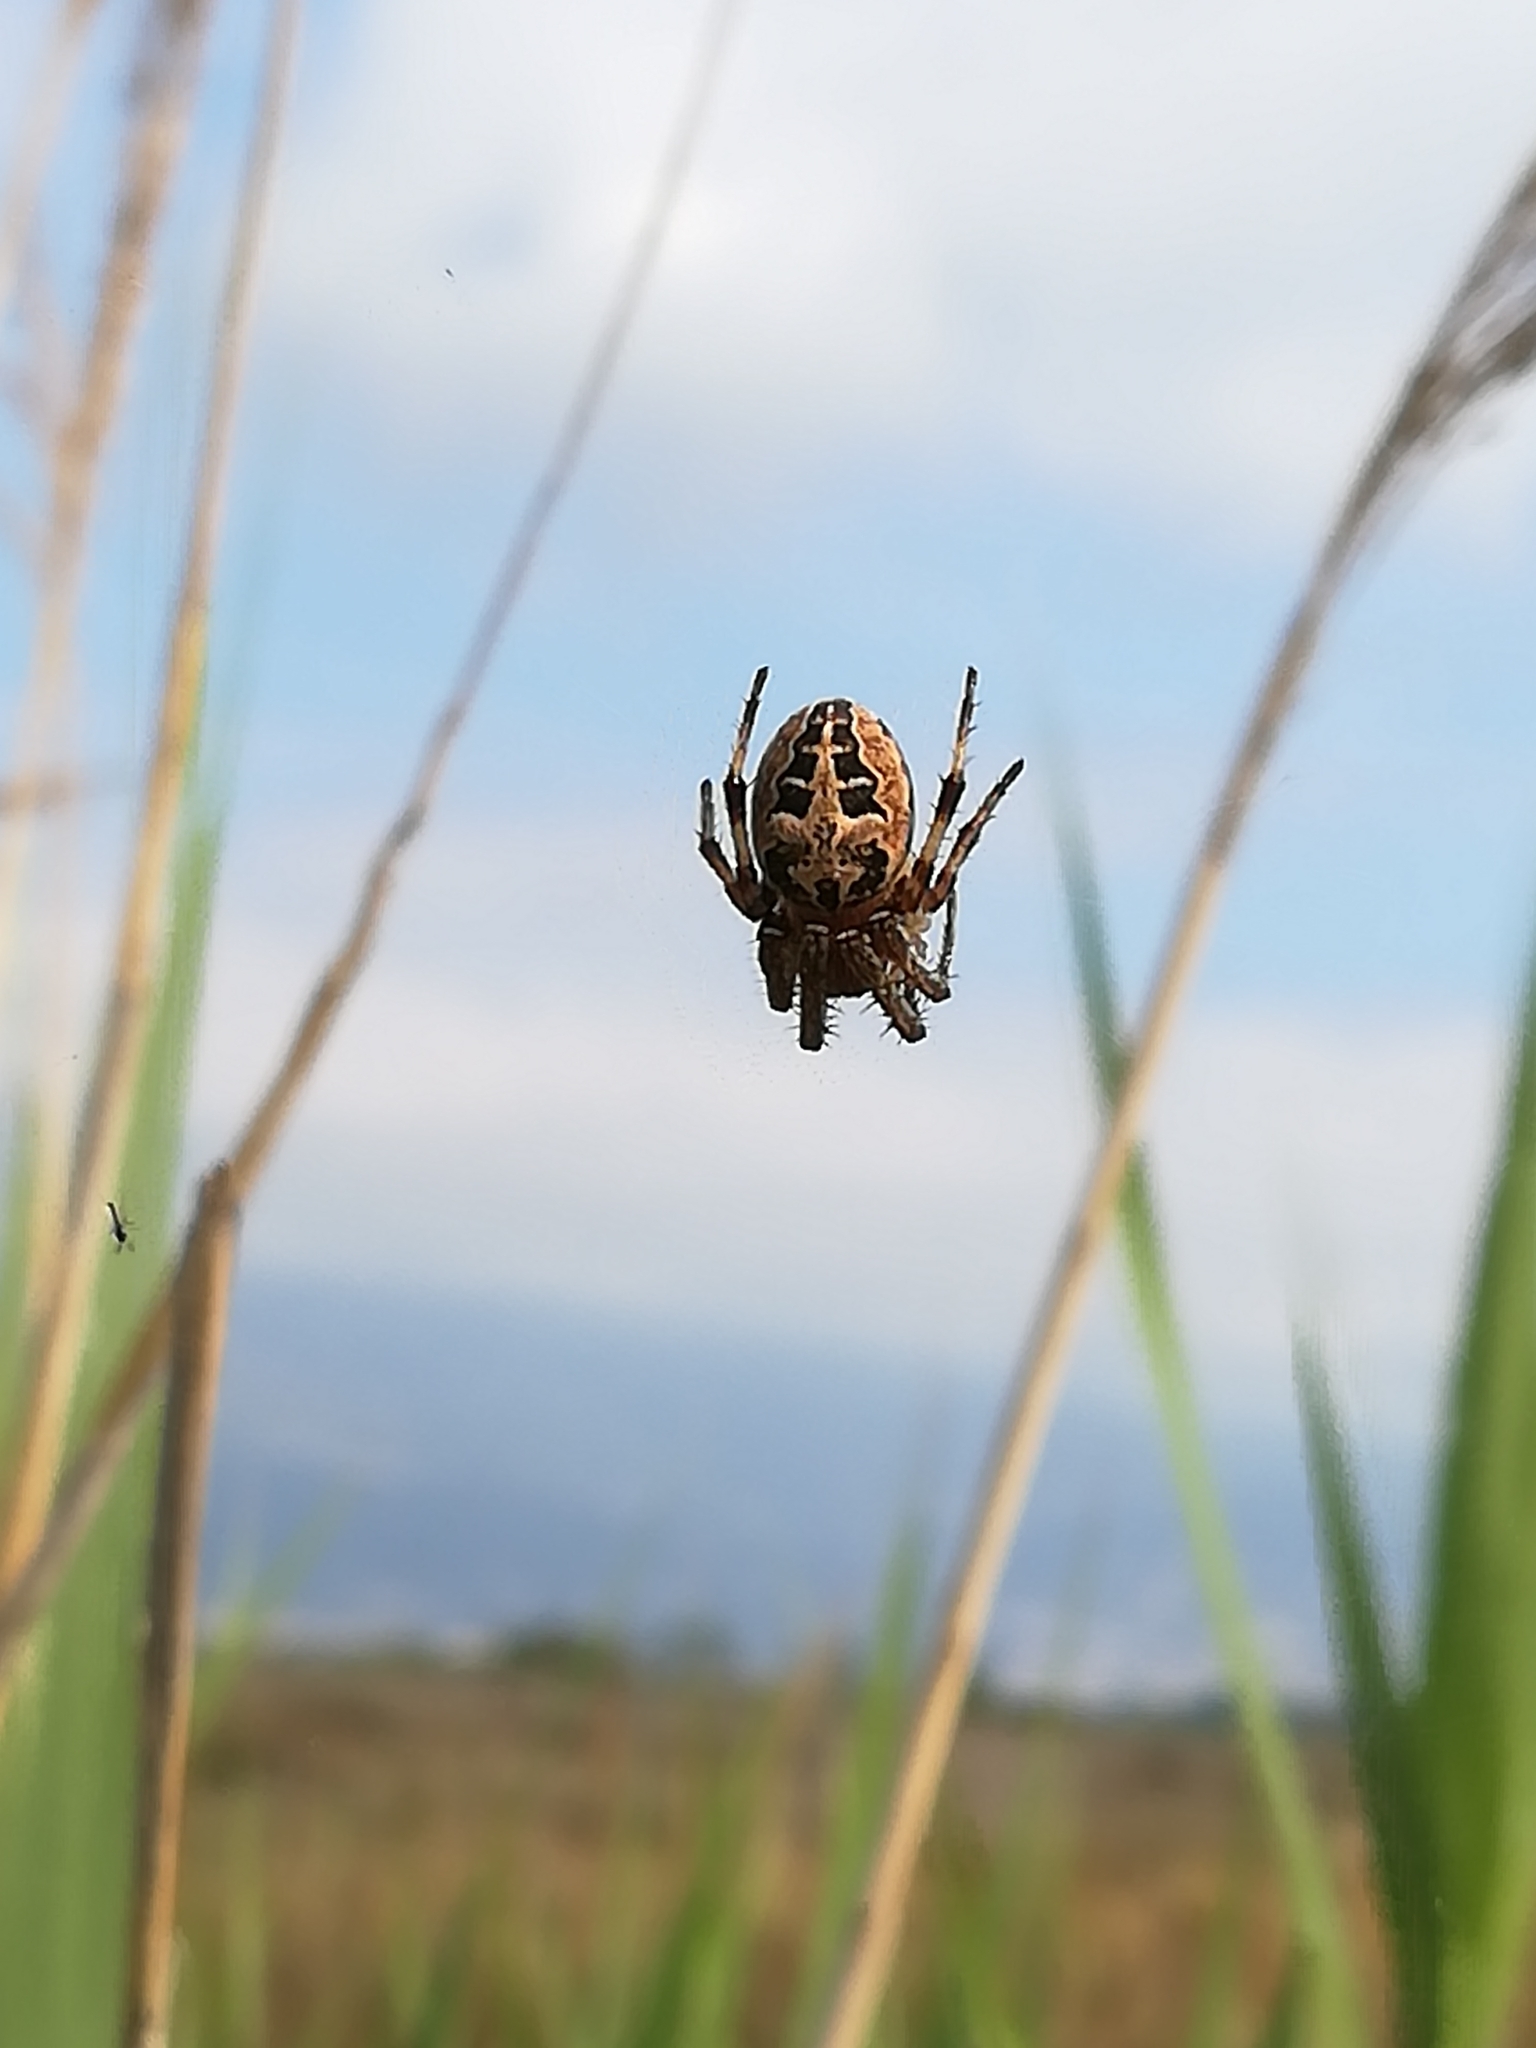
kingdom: Animalia
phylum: Arthropoda
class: Arachnida
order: Araneae
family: Araneidae
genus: Larinioides
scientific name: Larinioides
